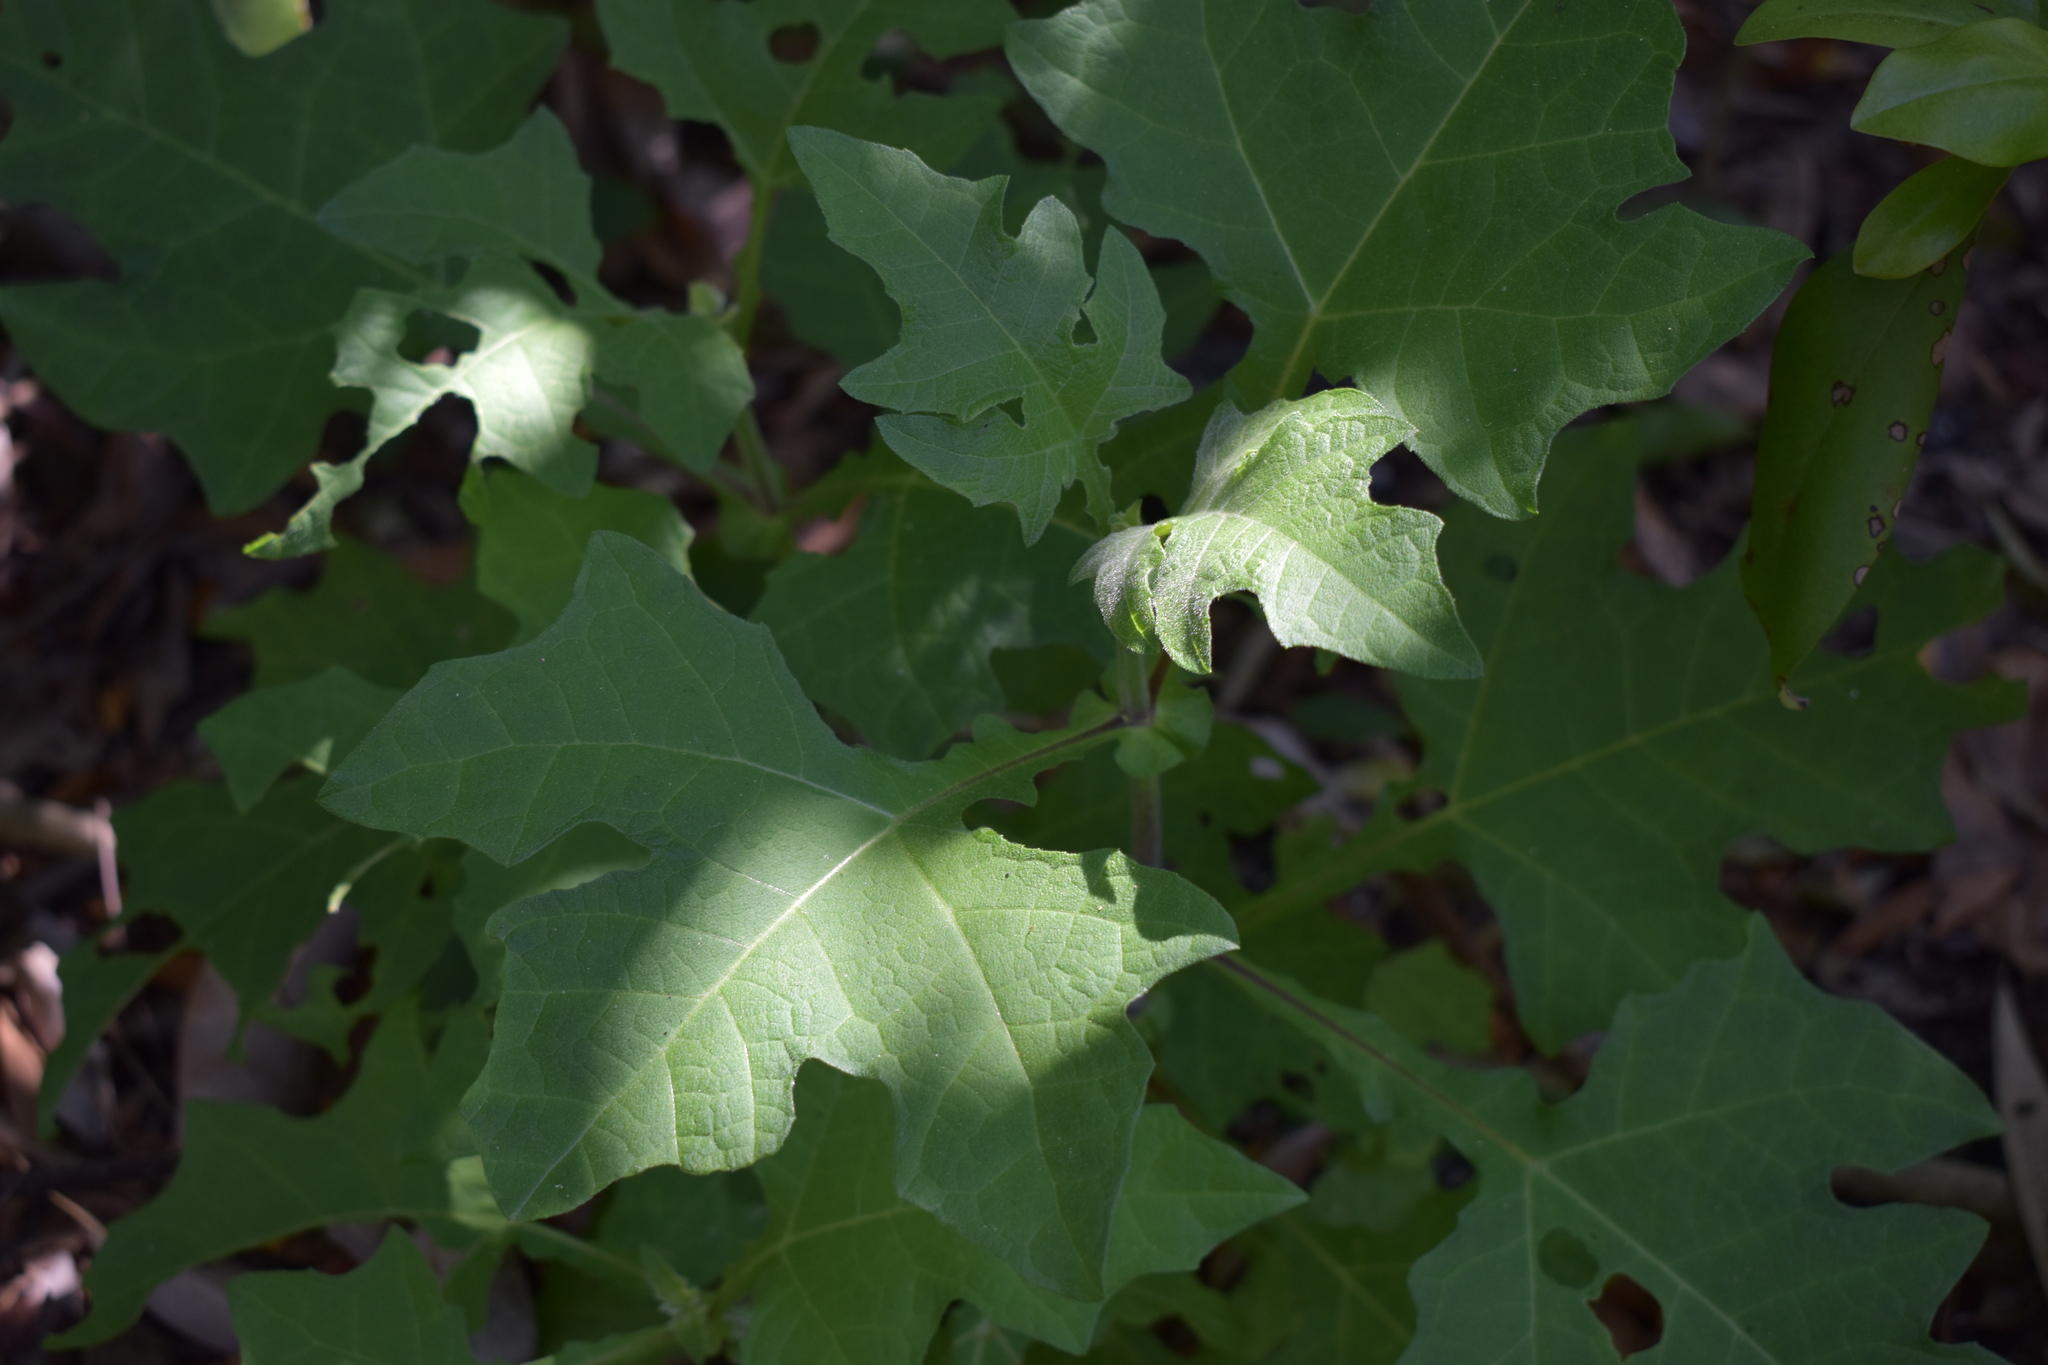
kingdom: Plantae
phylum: Tracheophyta
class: Magnoliopsida
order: Asterales
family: Asteraceae
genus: Smallanthus
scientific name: Smallanthus uvedalia
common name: Bear's-foot
